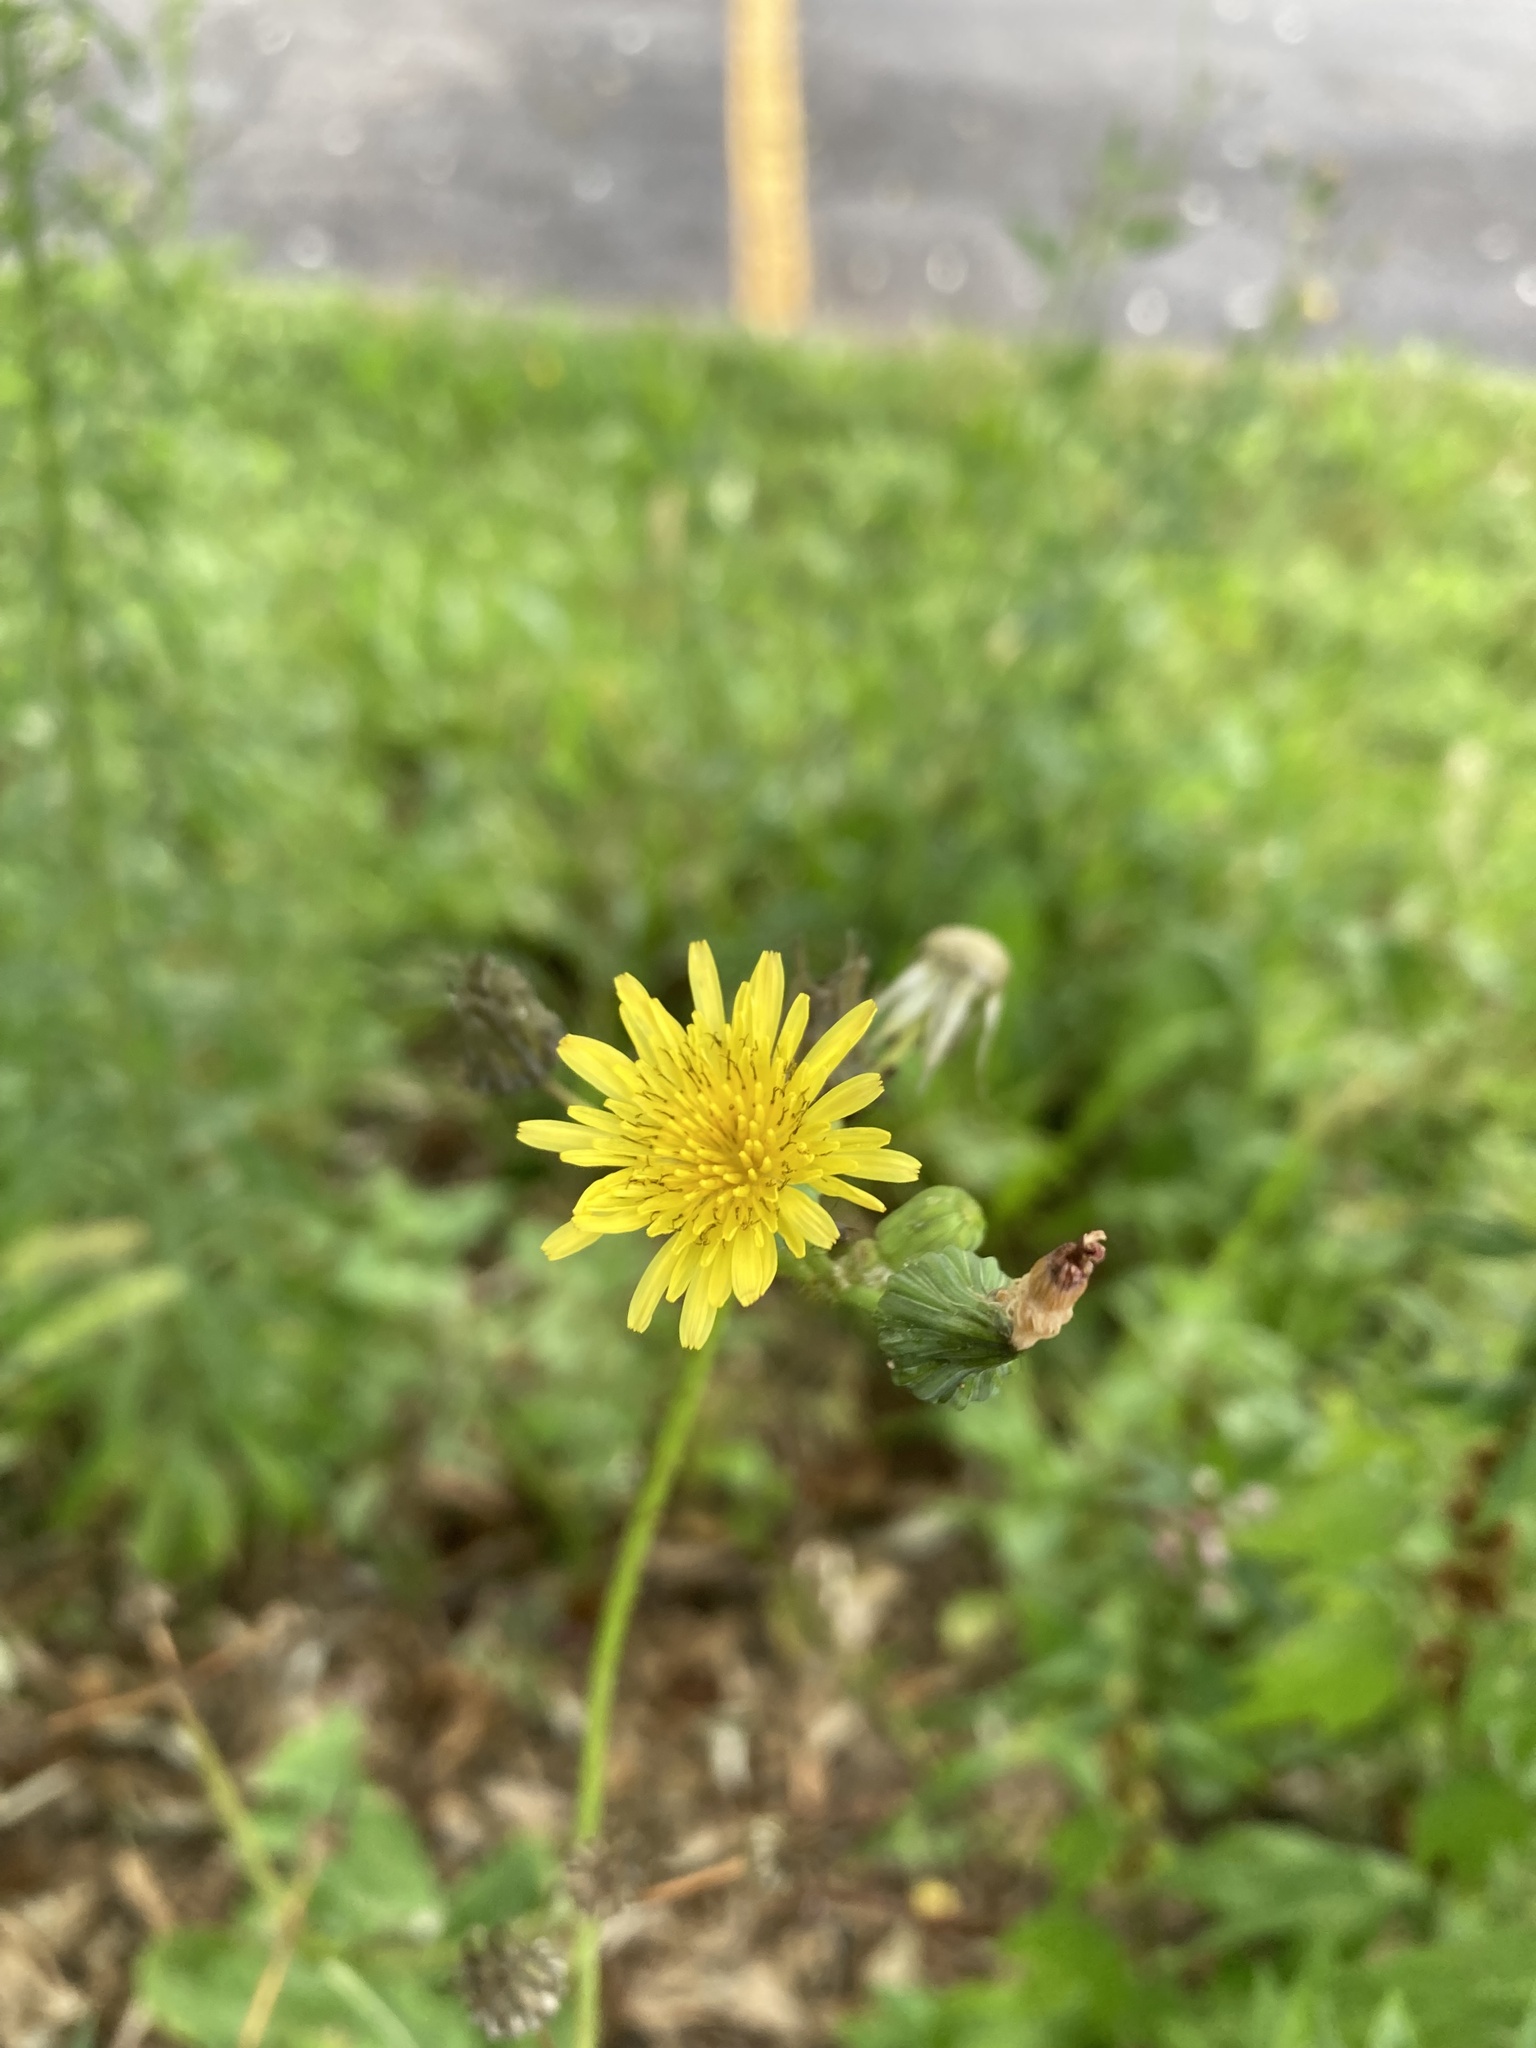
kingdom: Plantae
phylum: Tracheophyta
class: Magnoliopsida
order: Asterales
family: Asteraceae
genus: Sonchus
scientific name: Sonchus oleraceus
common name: Common sowthistle
